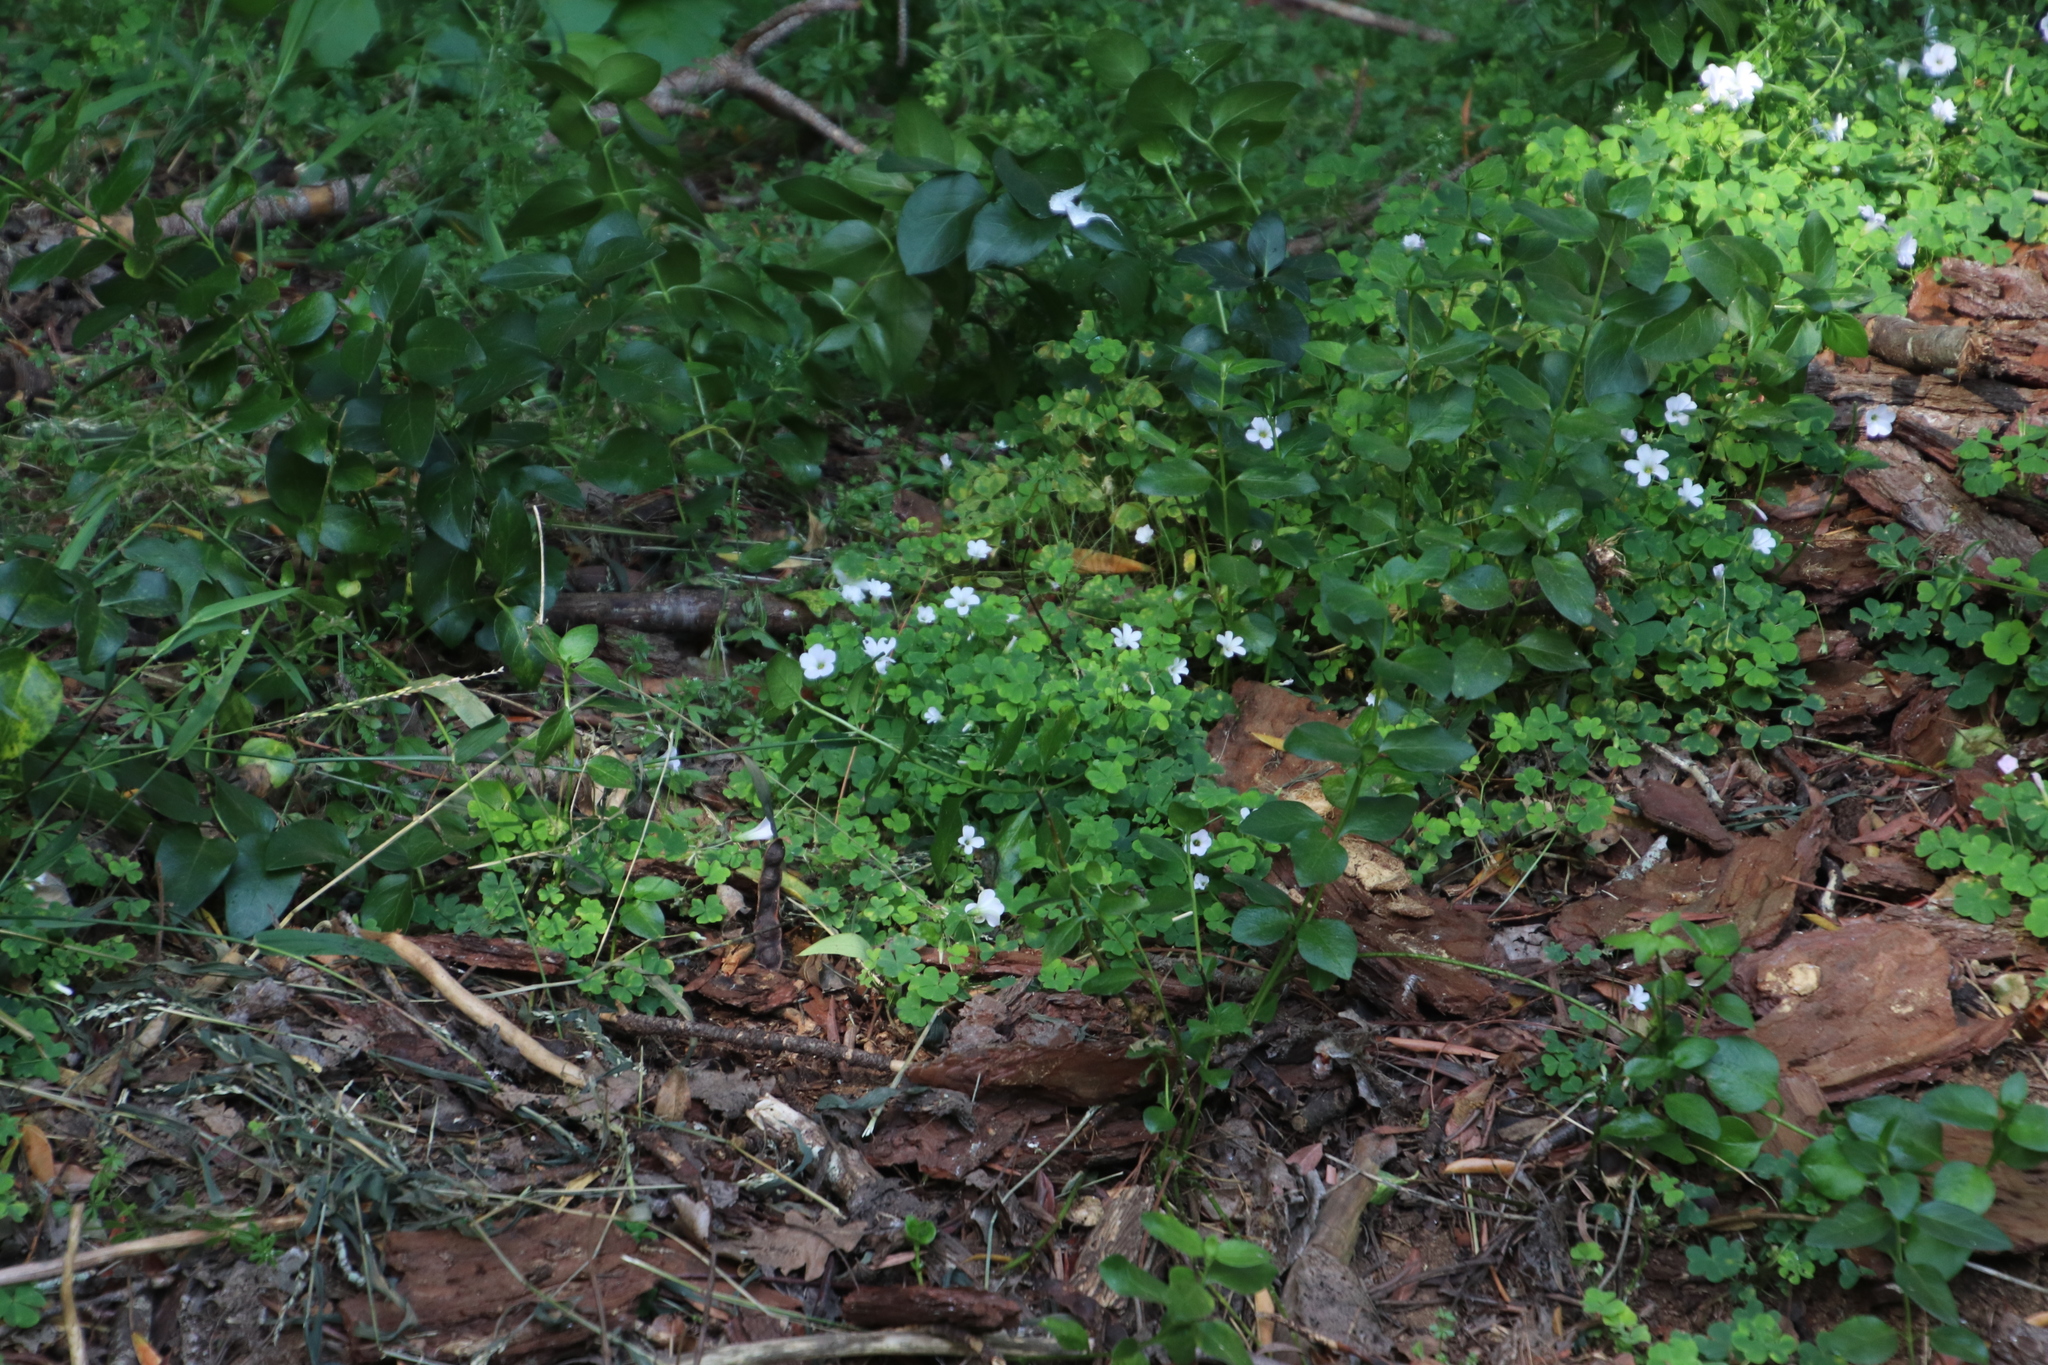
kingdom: Plantae
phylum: Tracheophyta
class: Magnoliopsida
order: Oxalidales
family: Oxalidaceae
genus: Oxalis
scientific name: Oxalis incarnata
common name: Pale pink-sorrel
